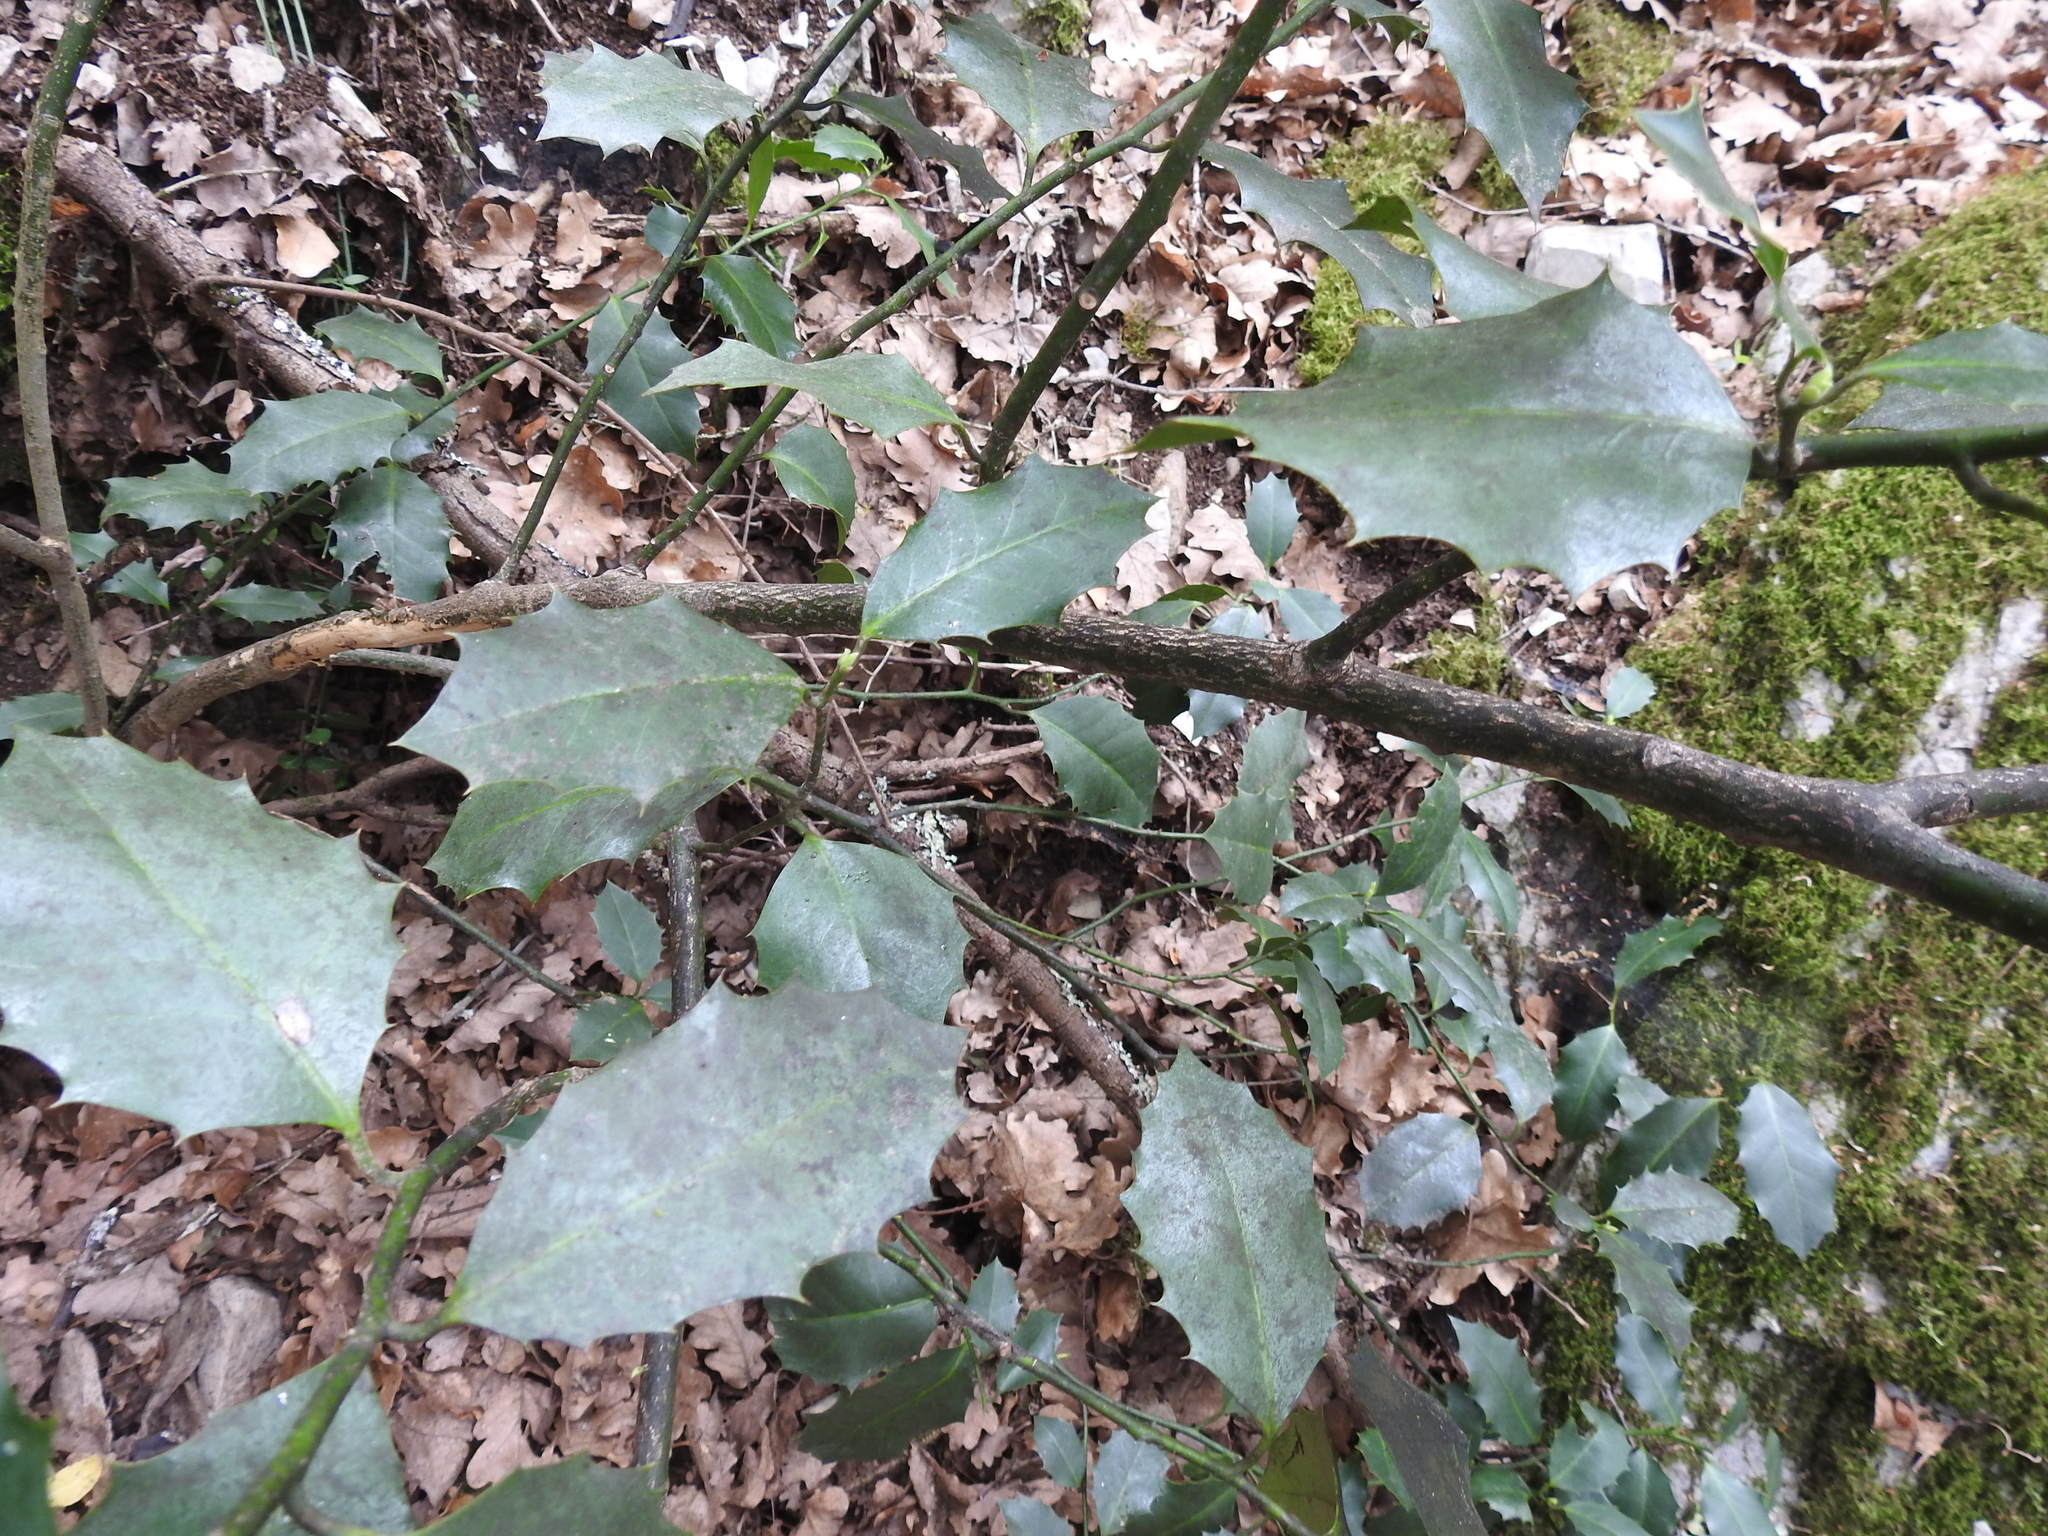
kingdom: Plantae
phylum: Tracheophyta
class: Magnoliopsida
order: Aquifoliales
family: Aquifoliaceae
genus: Ilex
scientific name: Ilex aquifolium
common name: English holly
